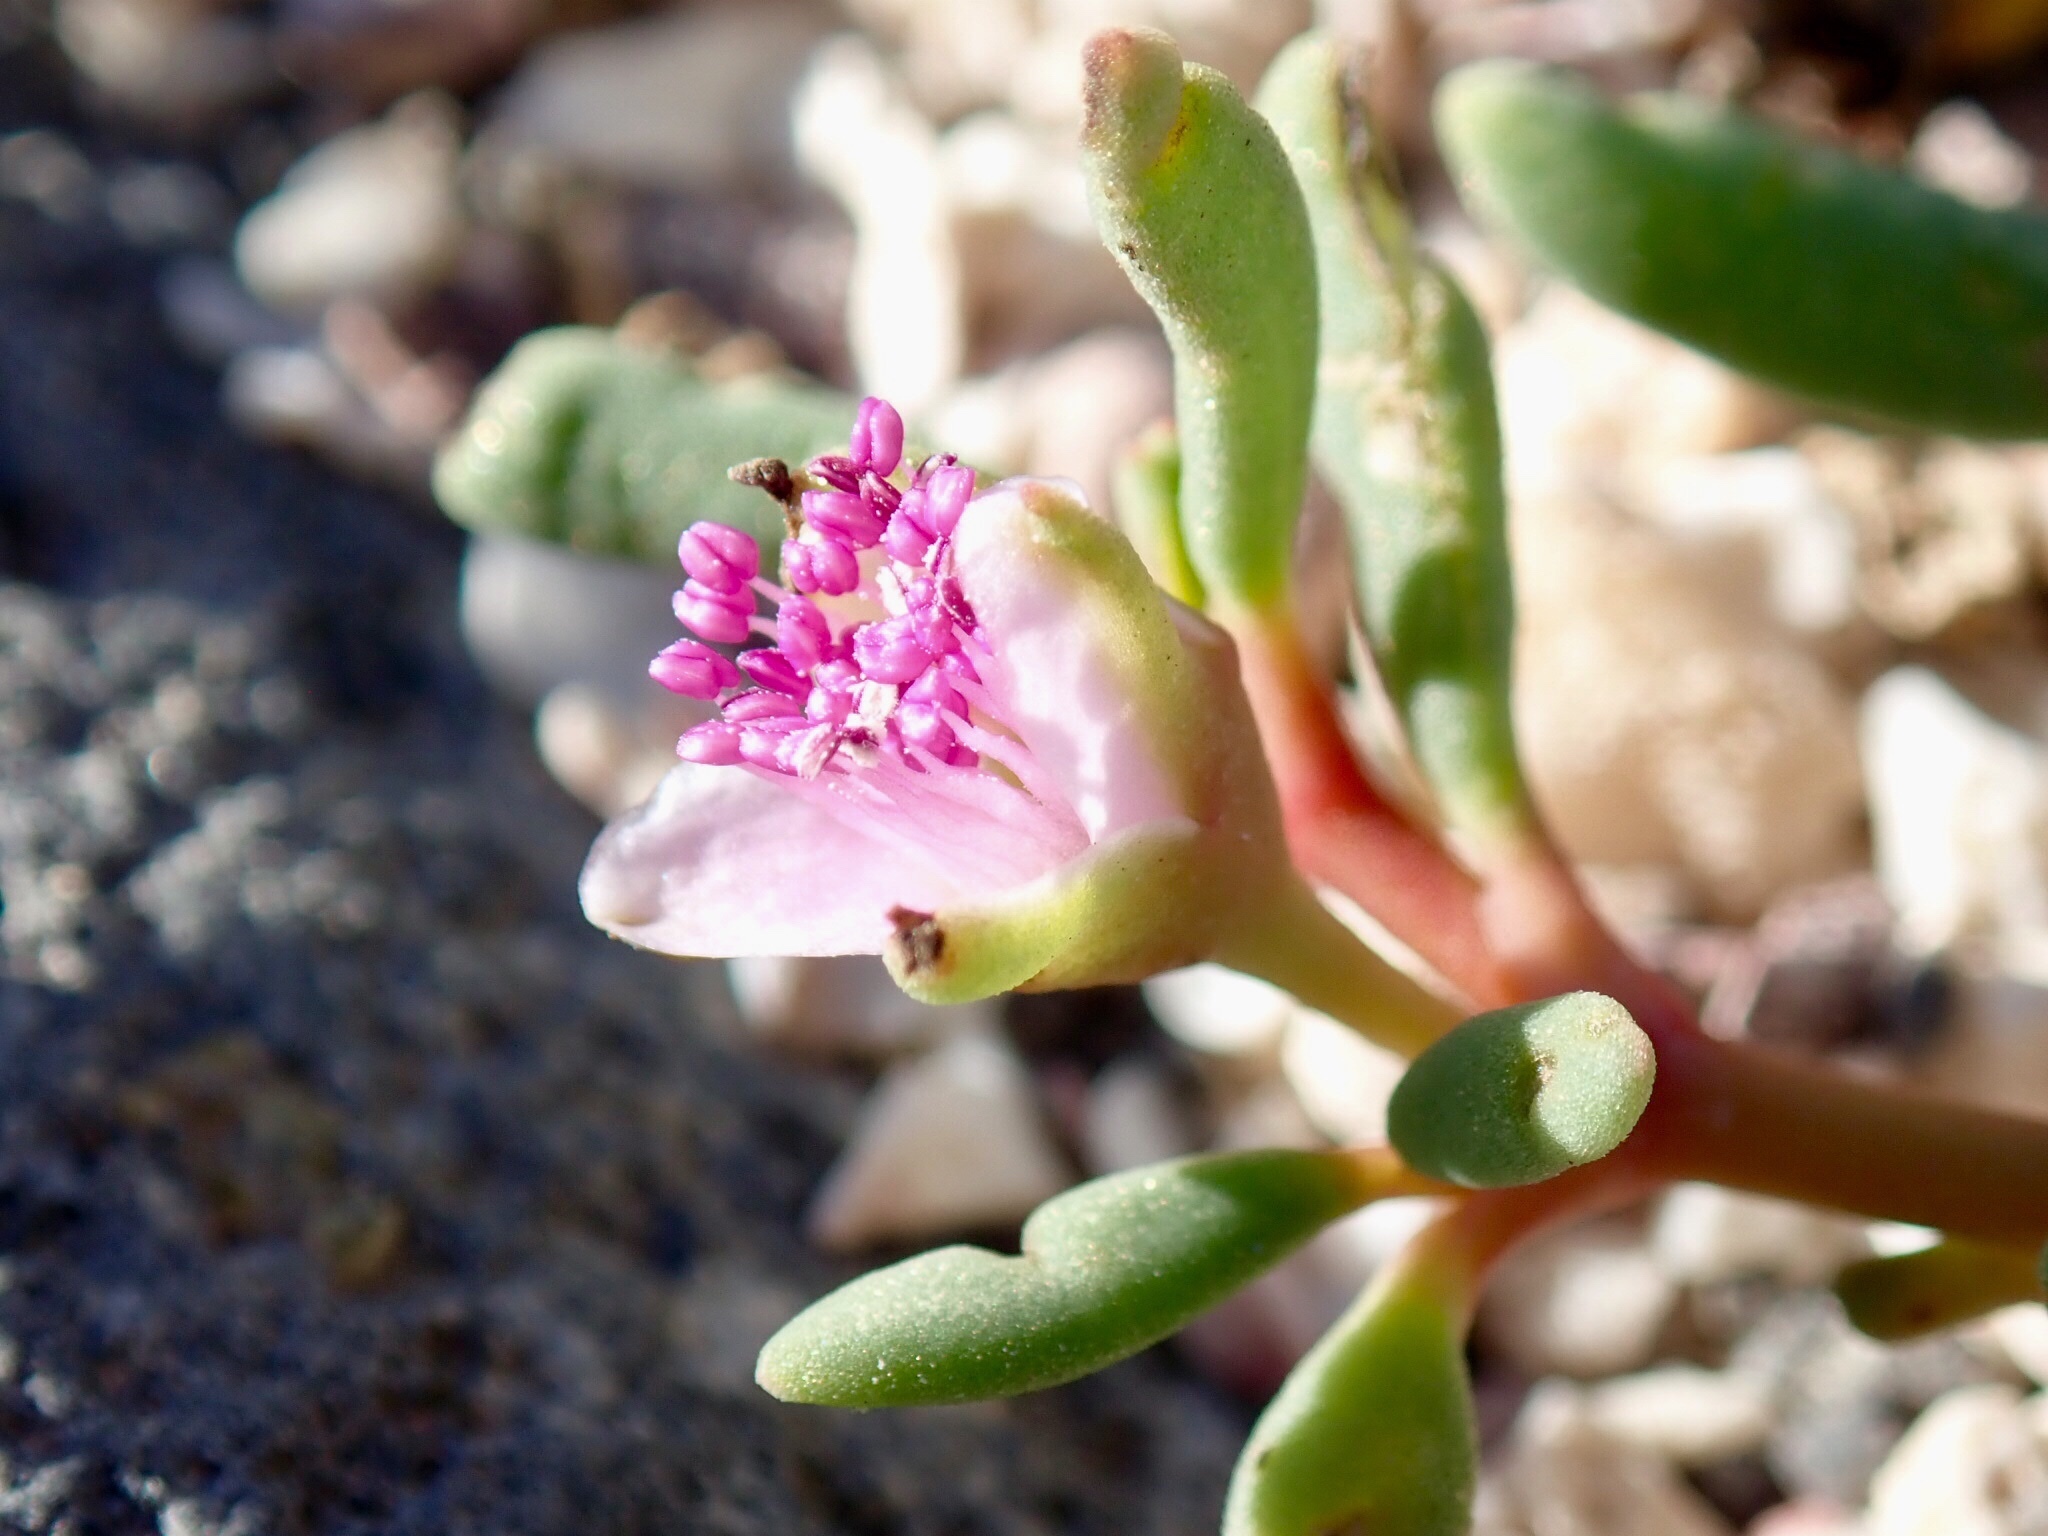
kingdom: Plantae
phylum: Tracheophyta
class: Magnoliopsida
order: Caryophyllales
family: Aizoaceae
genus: Sesuvium
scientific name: Sesuvium portulacastrum
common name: Sea-purslane
